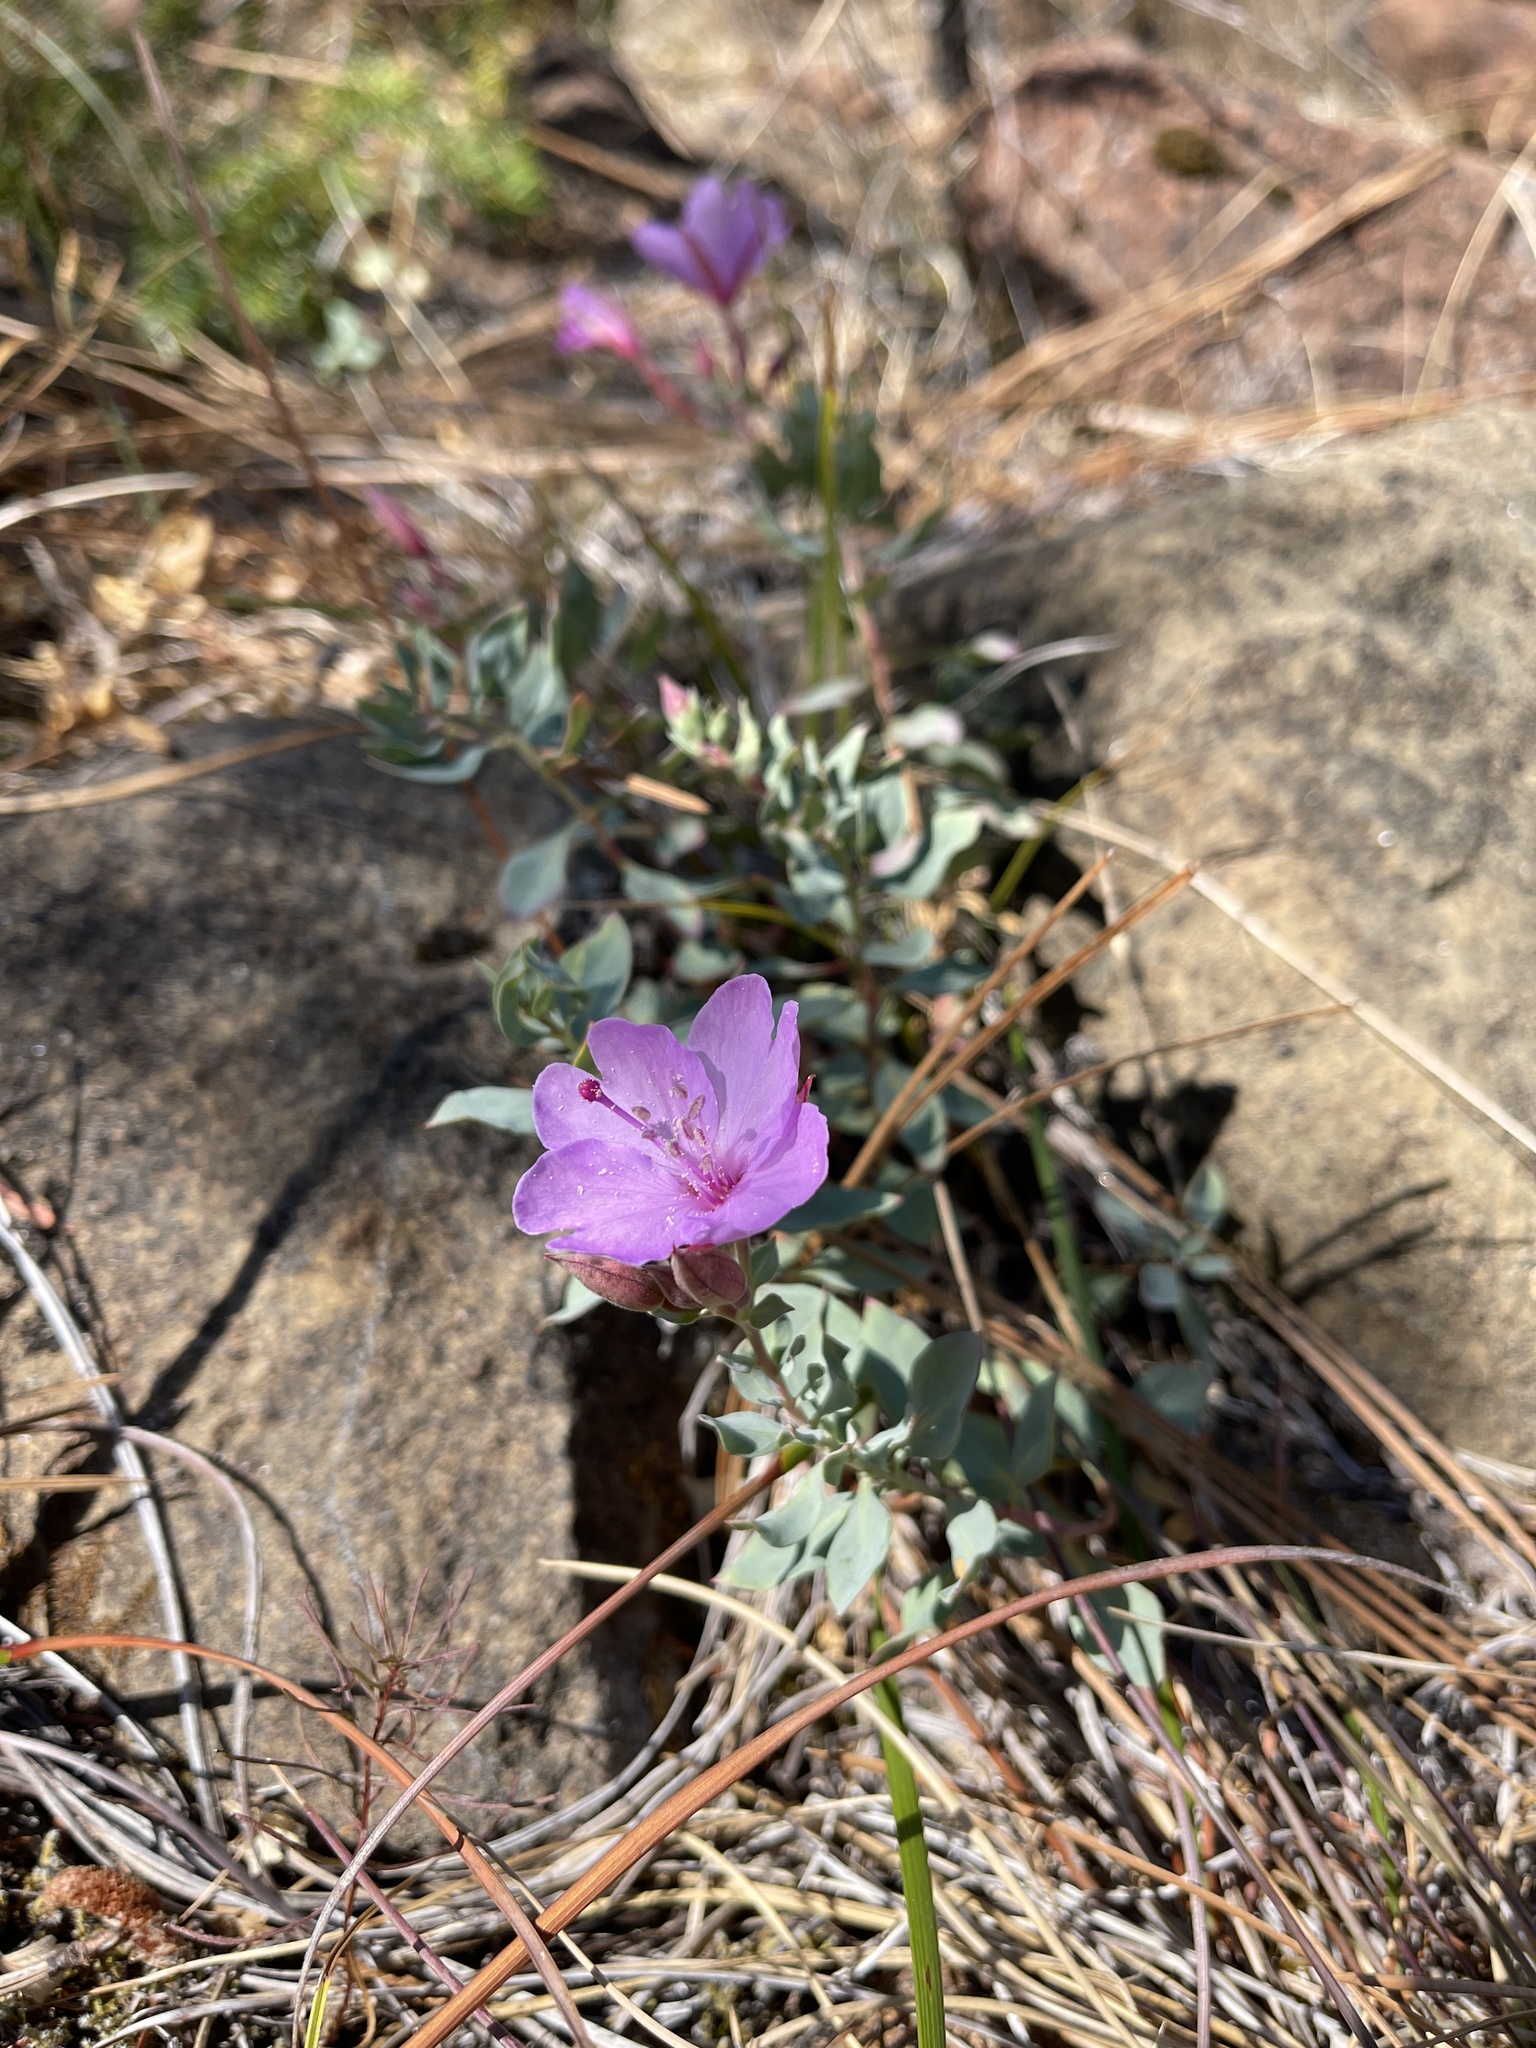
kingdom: Plantae
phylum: Tracheophyta
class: Magnoliopsida
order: Myrtales
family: Onagraceae
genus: Epilobium
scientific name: Epilobium rigidum
